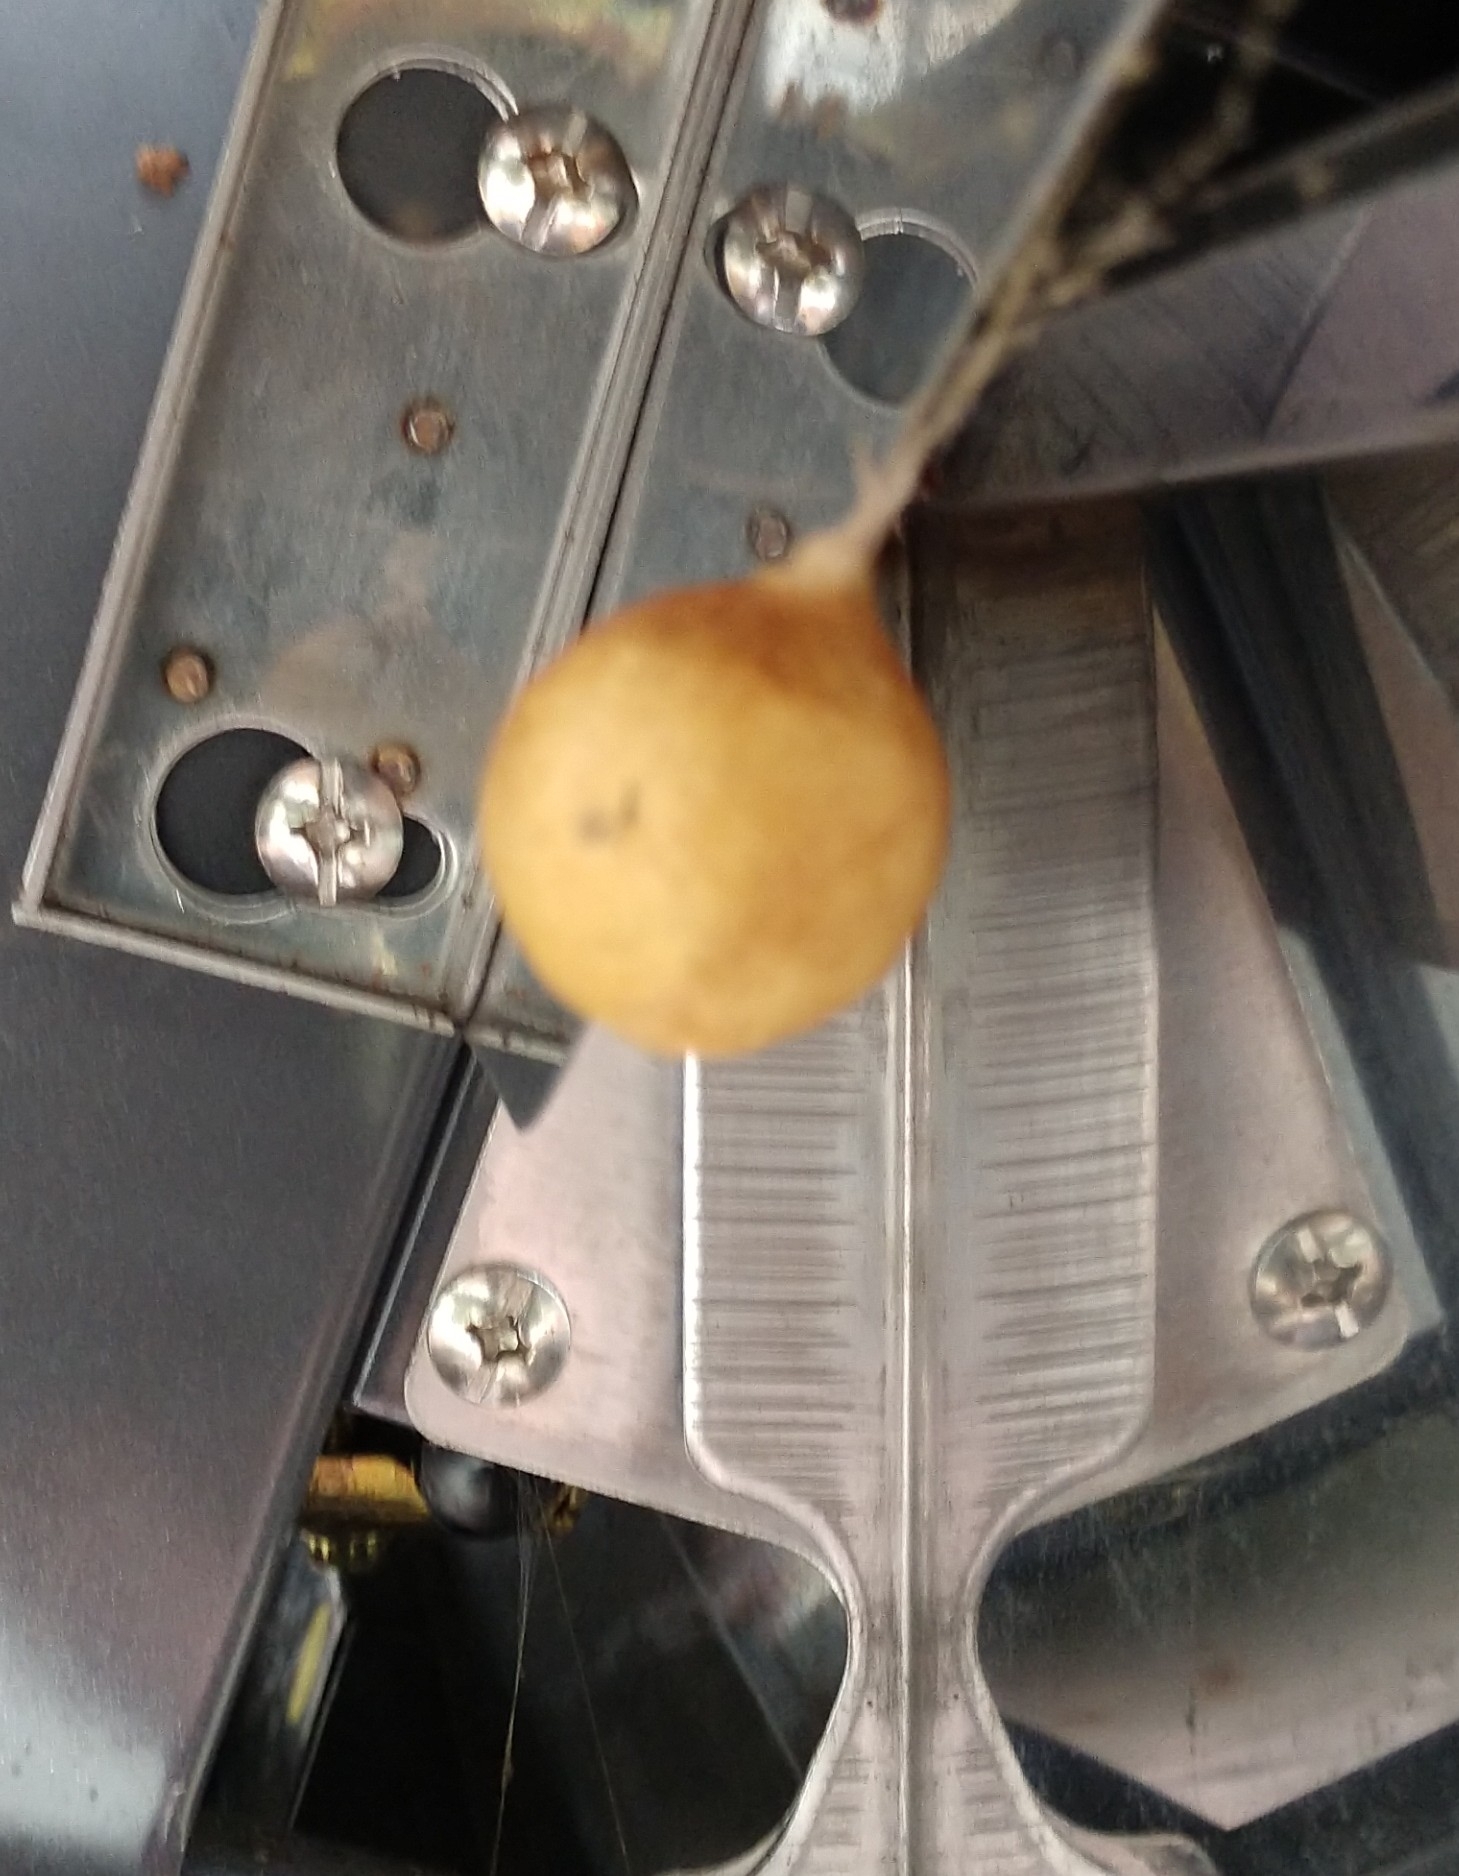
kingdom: Animalia
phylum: Arthropoda
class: Arachnida
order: Araneae
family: Theridiosomatidae
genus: Theridiosoma
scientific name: Theridiosoma gemmosum
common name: Ray spider
